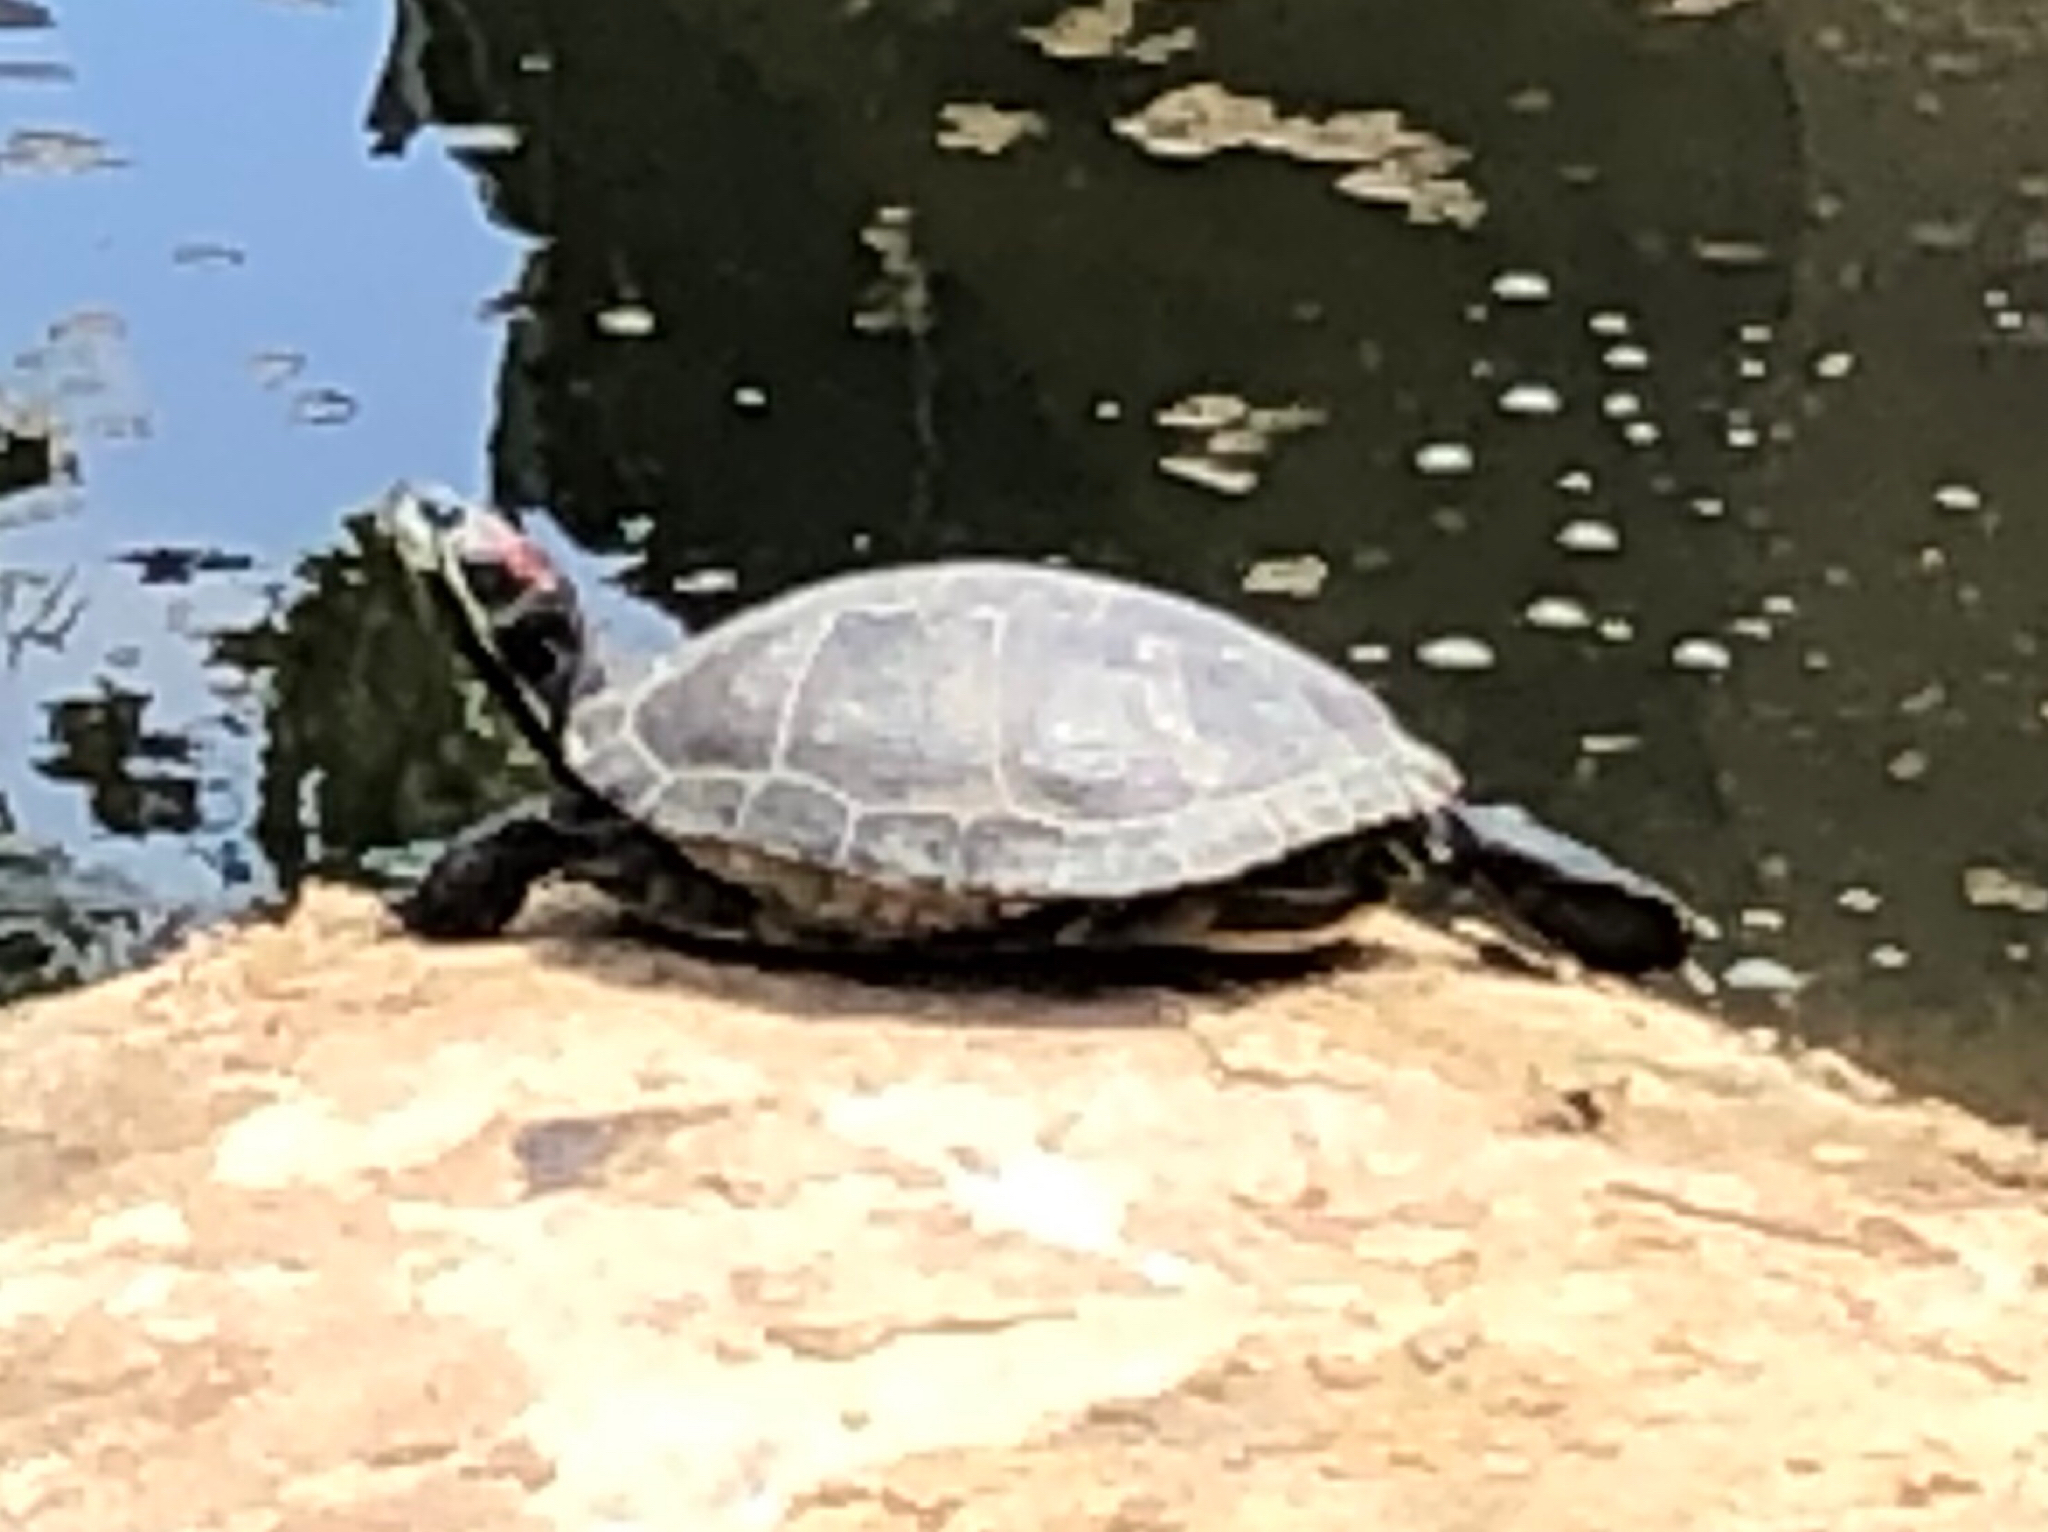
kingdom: Animalia
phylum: Chordata
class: Testudines
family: Emydidae
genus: Trachemys
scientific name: Trachemys scripta
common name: Slider
